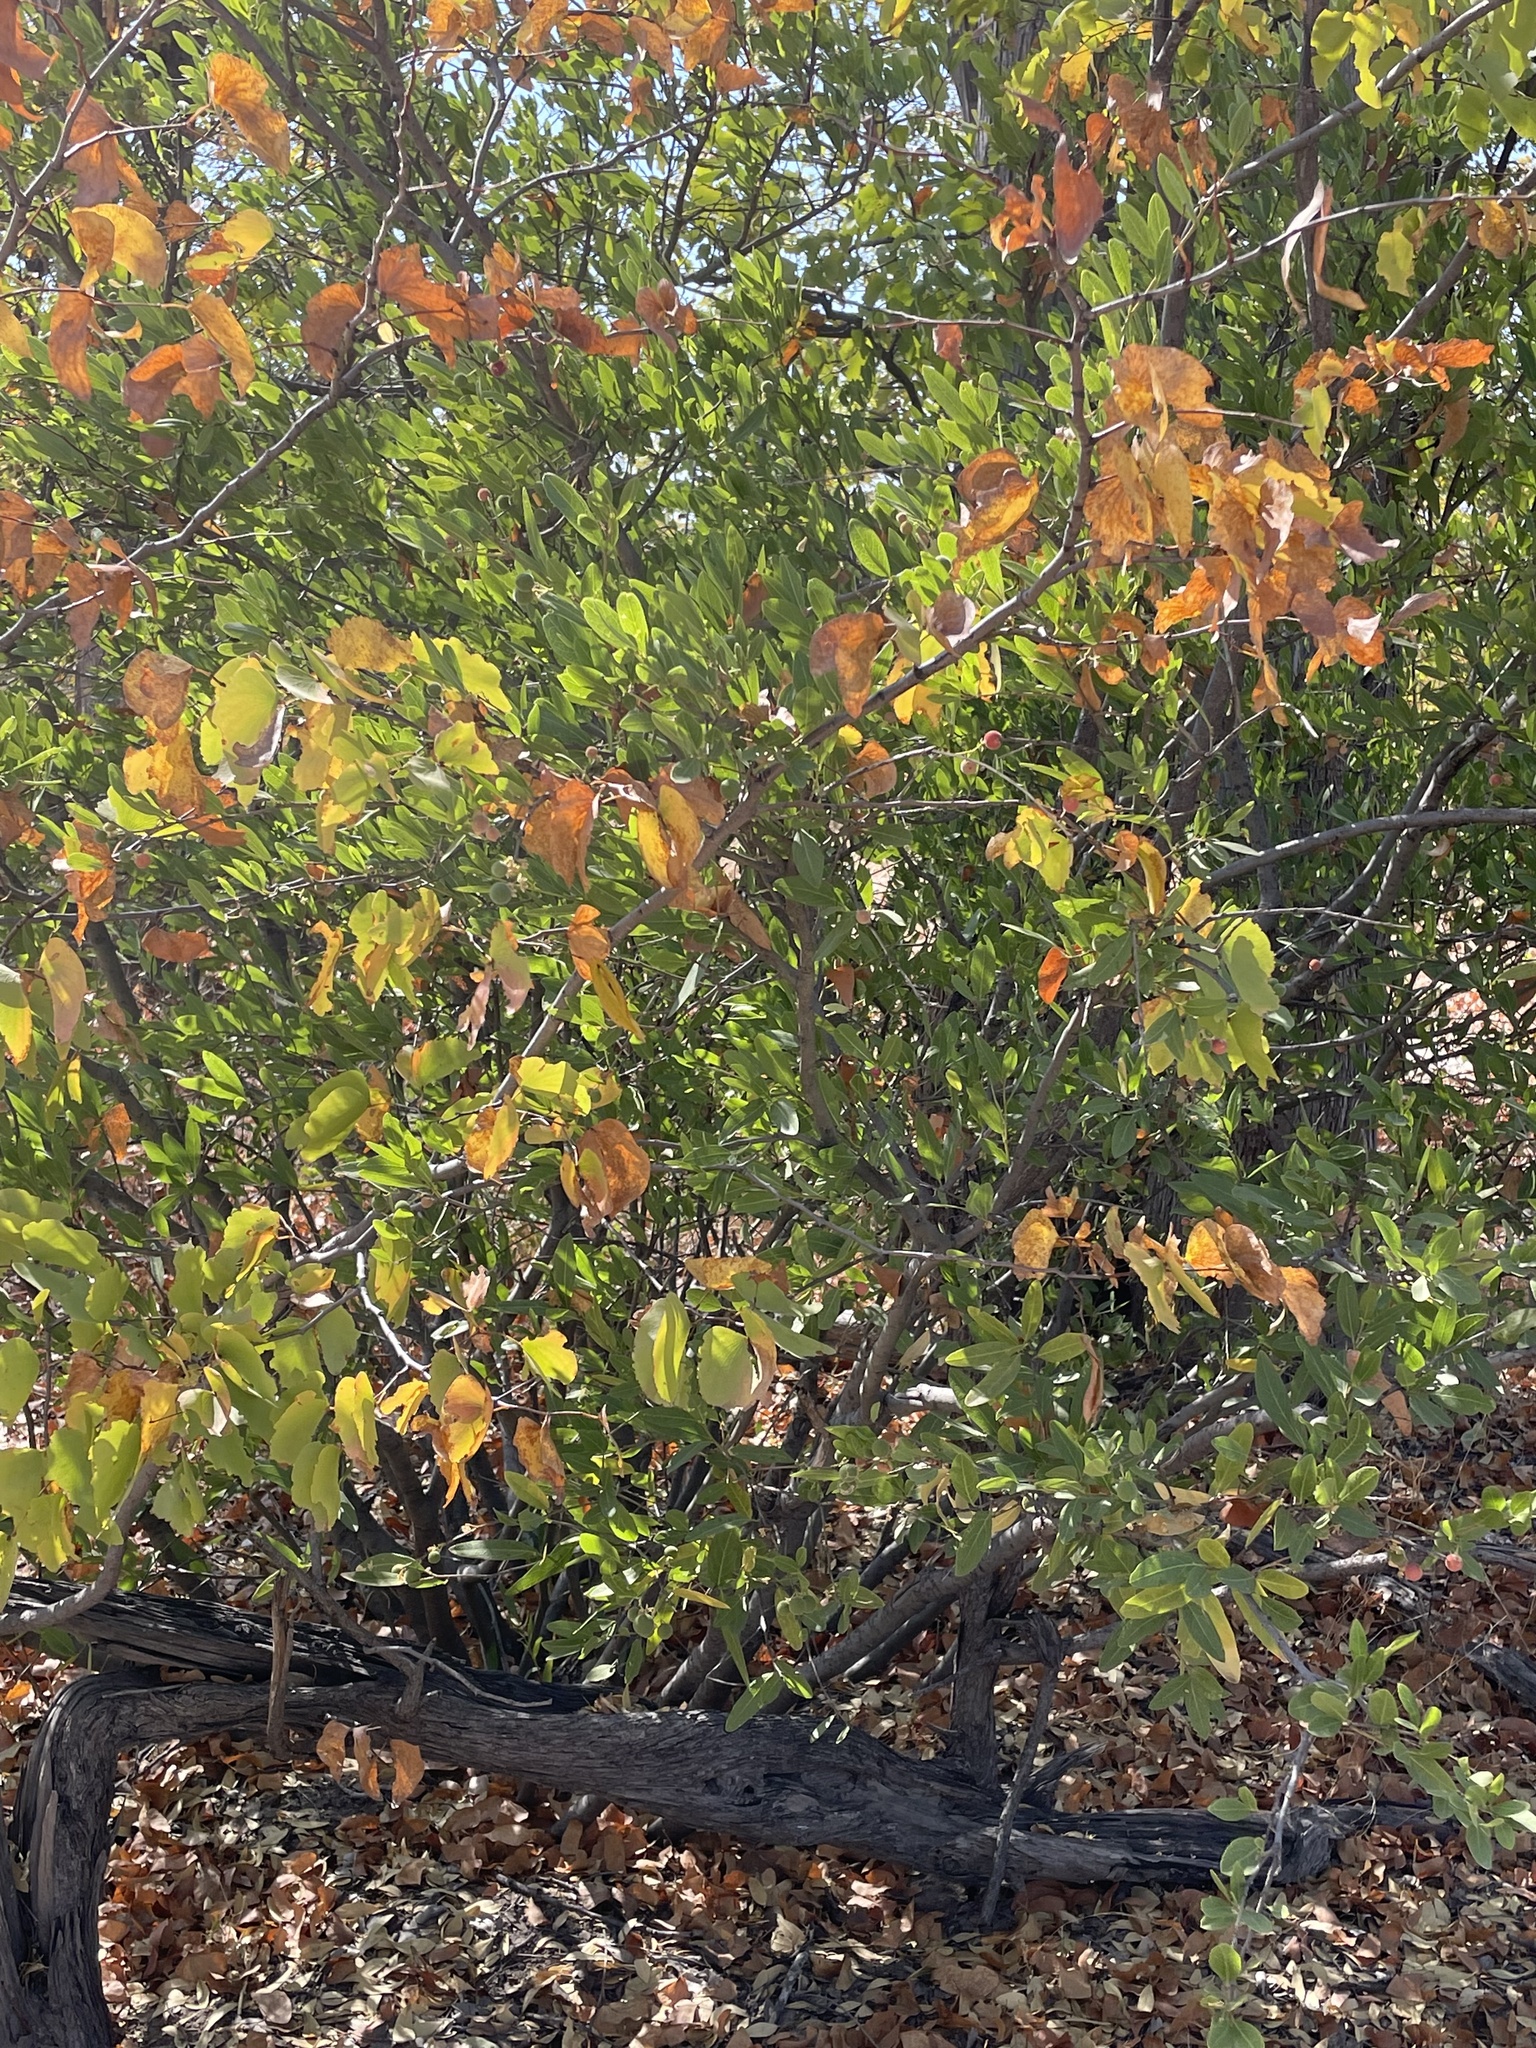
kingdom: Plantae
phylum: Tracheophyta
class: Magnoliopsida
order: Fabales
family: Fabaceae
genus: Colophospermum
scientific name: Colophospermum mopane
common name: Mopane
